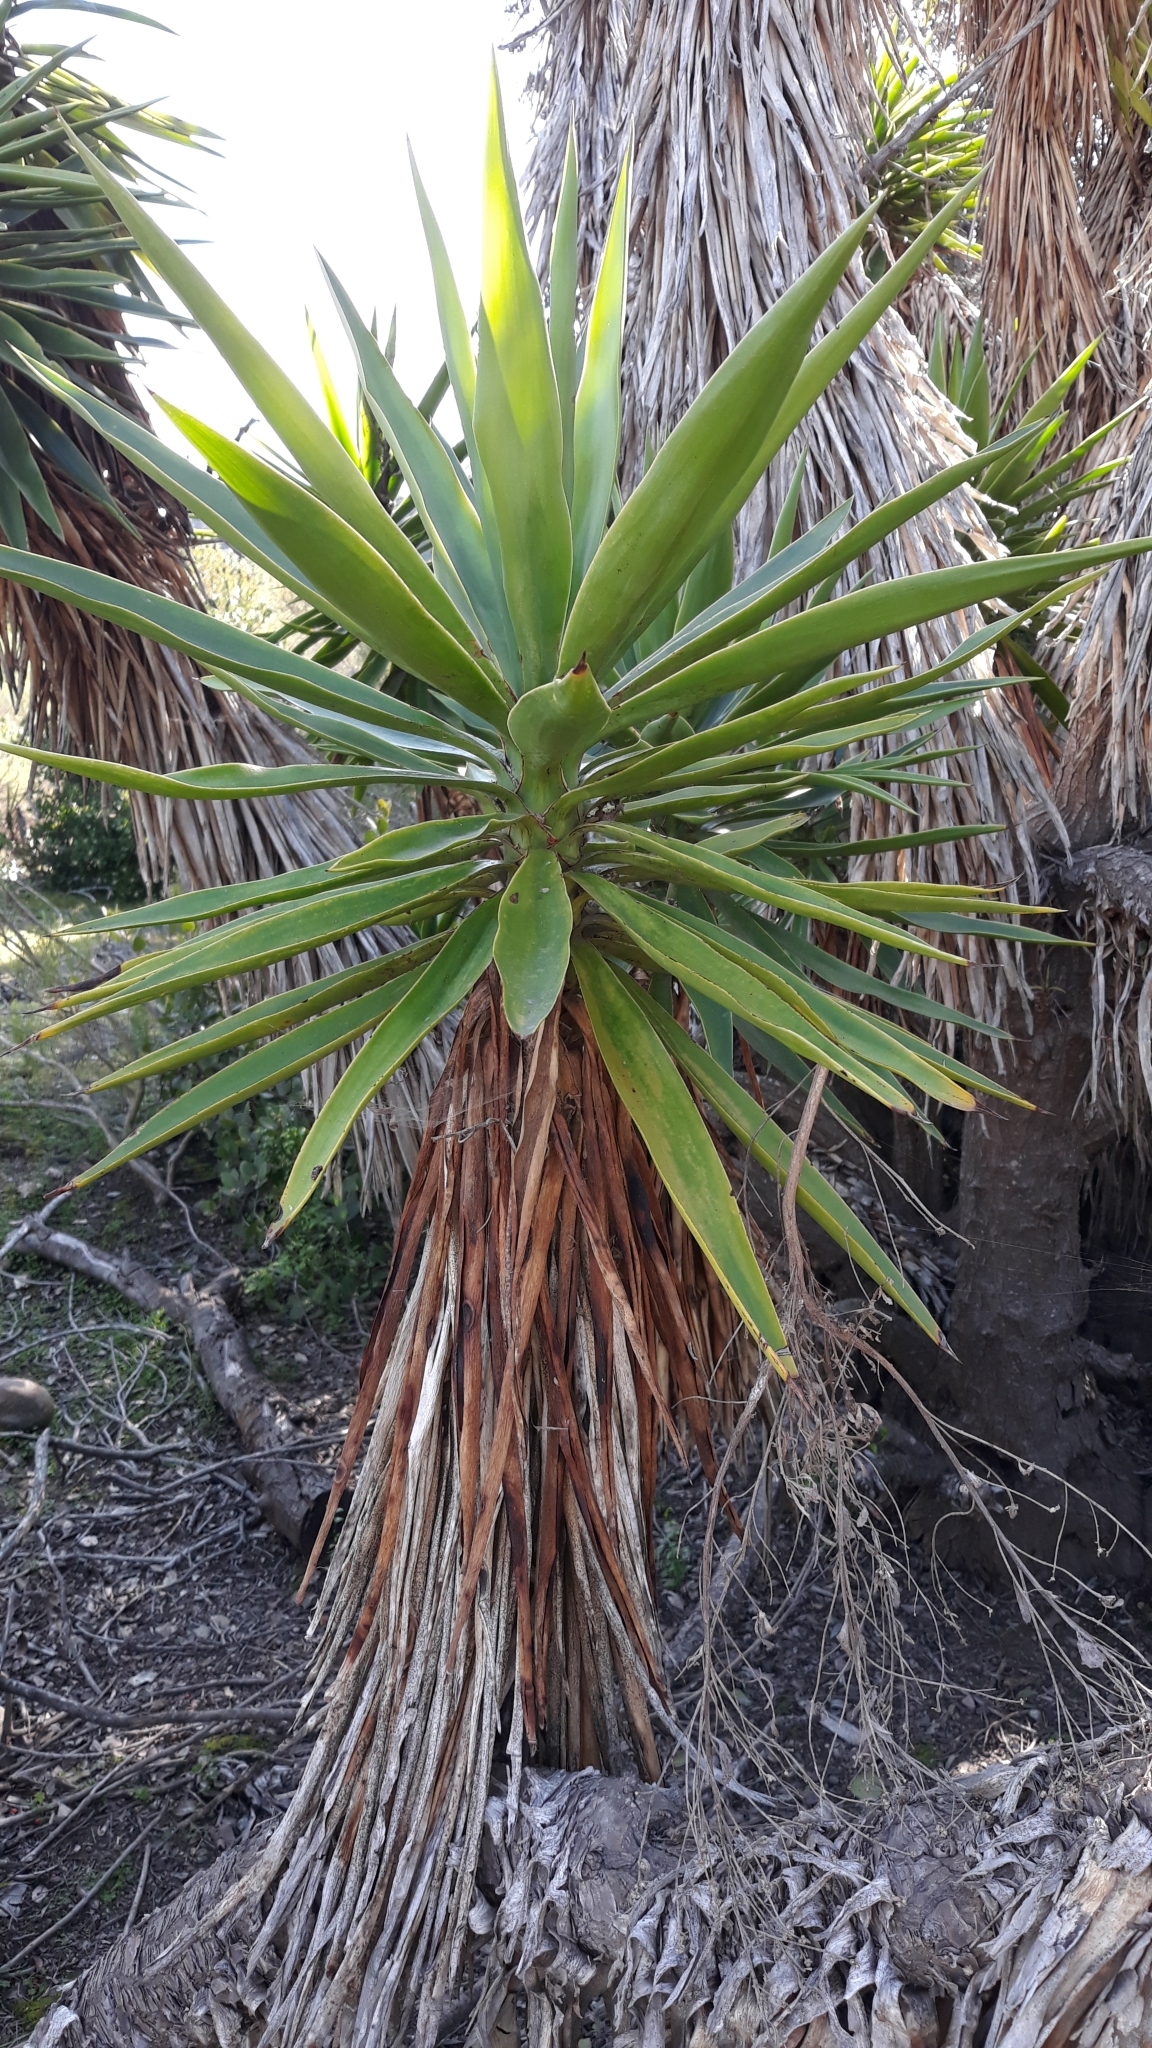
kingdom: Plantae
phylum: Tracheophyta
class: Liliopsida
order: Asparagales
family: Asparagaceae
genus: Yucca
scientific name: Yucca gigantea
